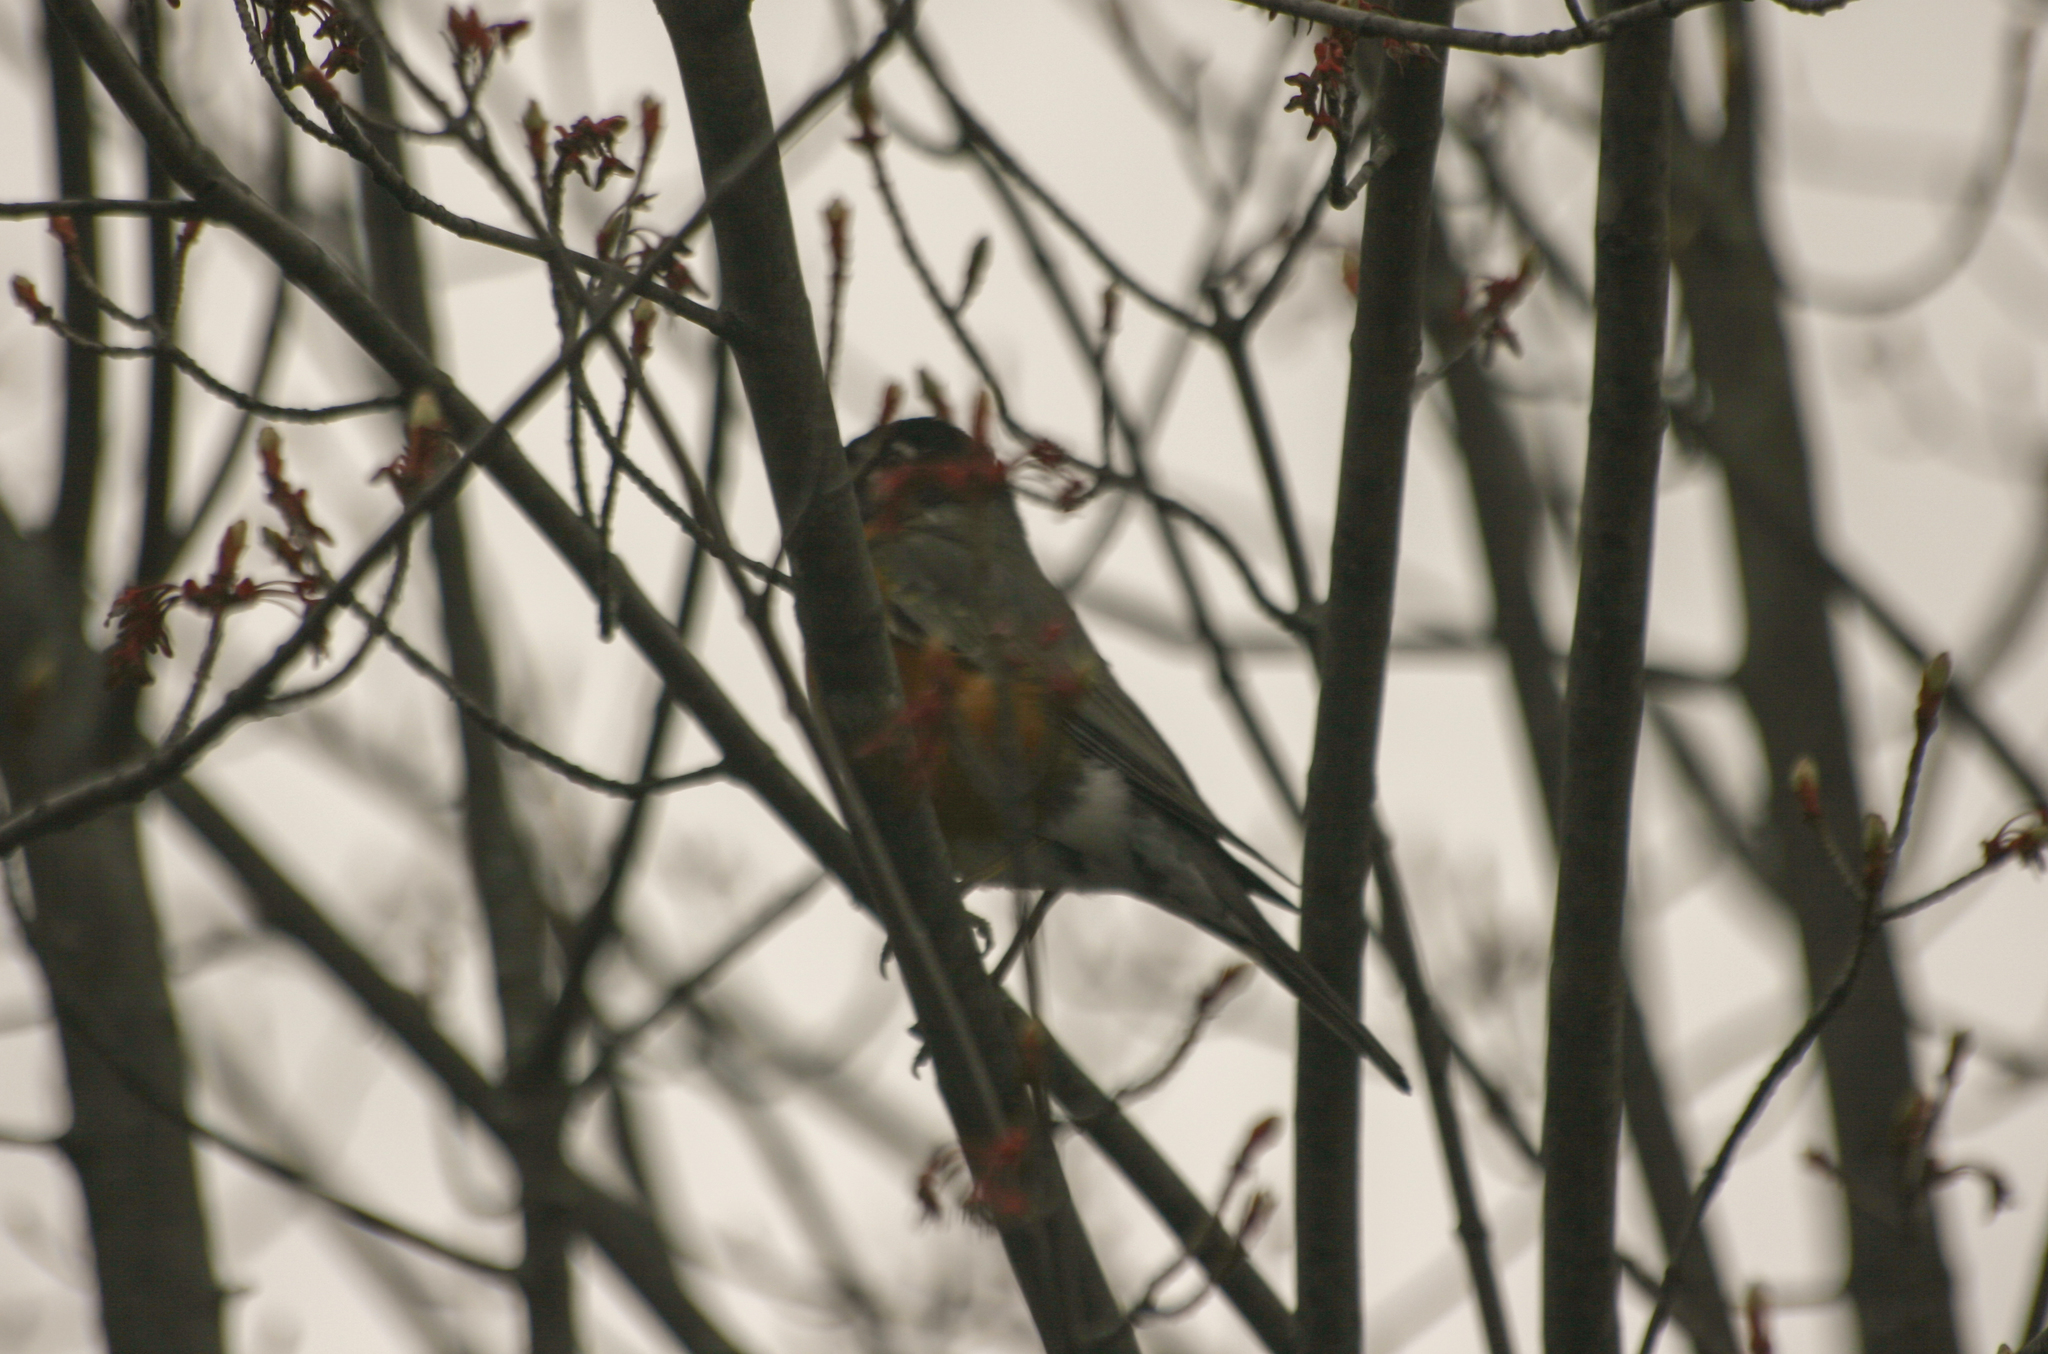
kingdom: Animalia
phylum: Chordata
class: Aves
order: Passeriformes
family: Turdidae
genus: Turdus
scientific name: Turdus migratorius
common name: American robin
